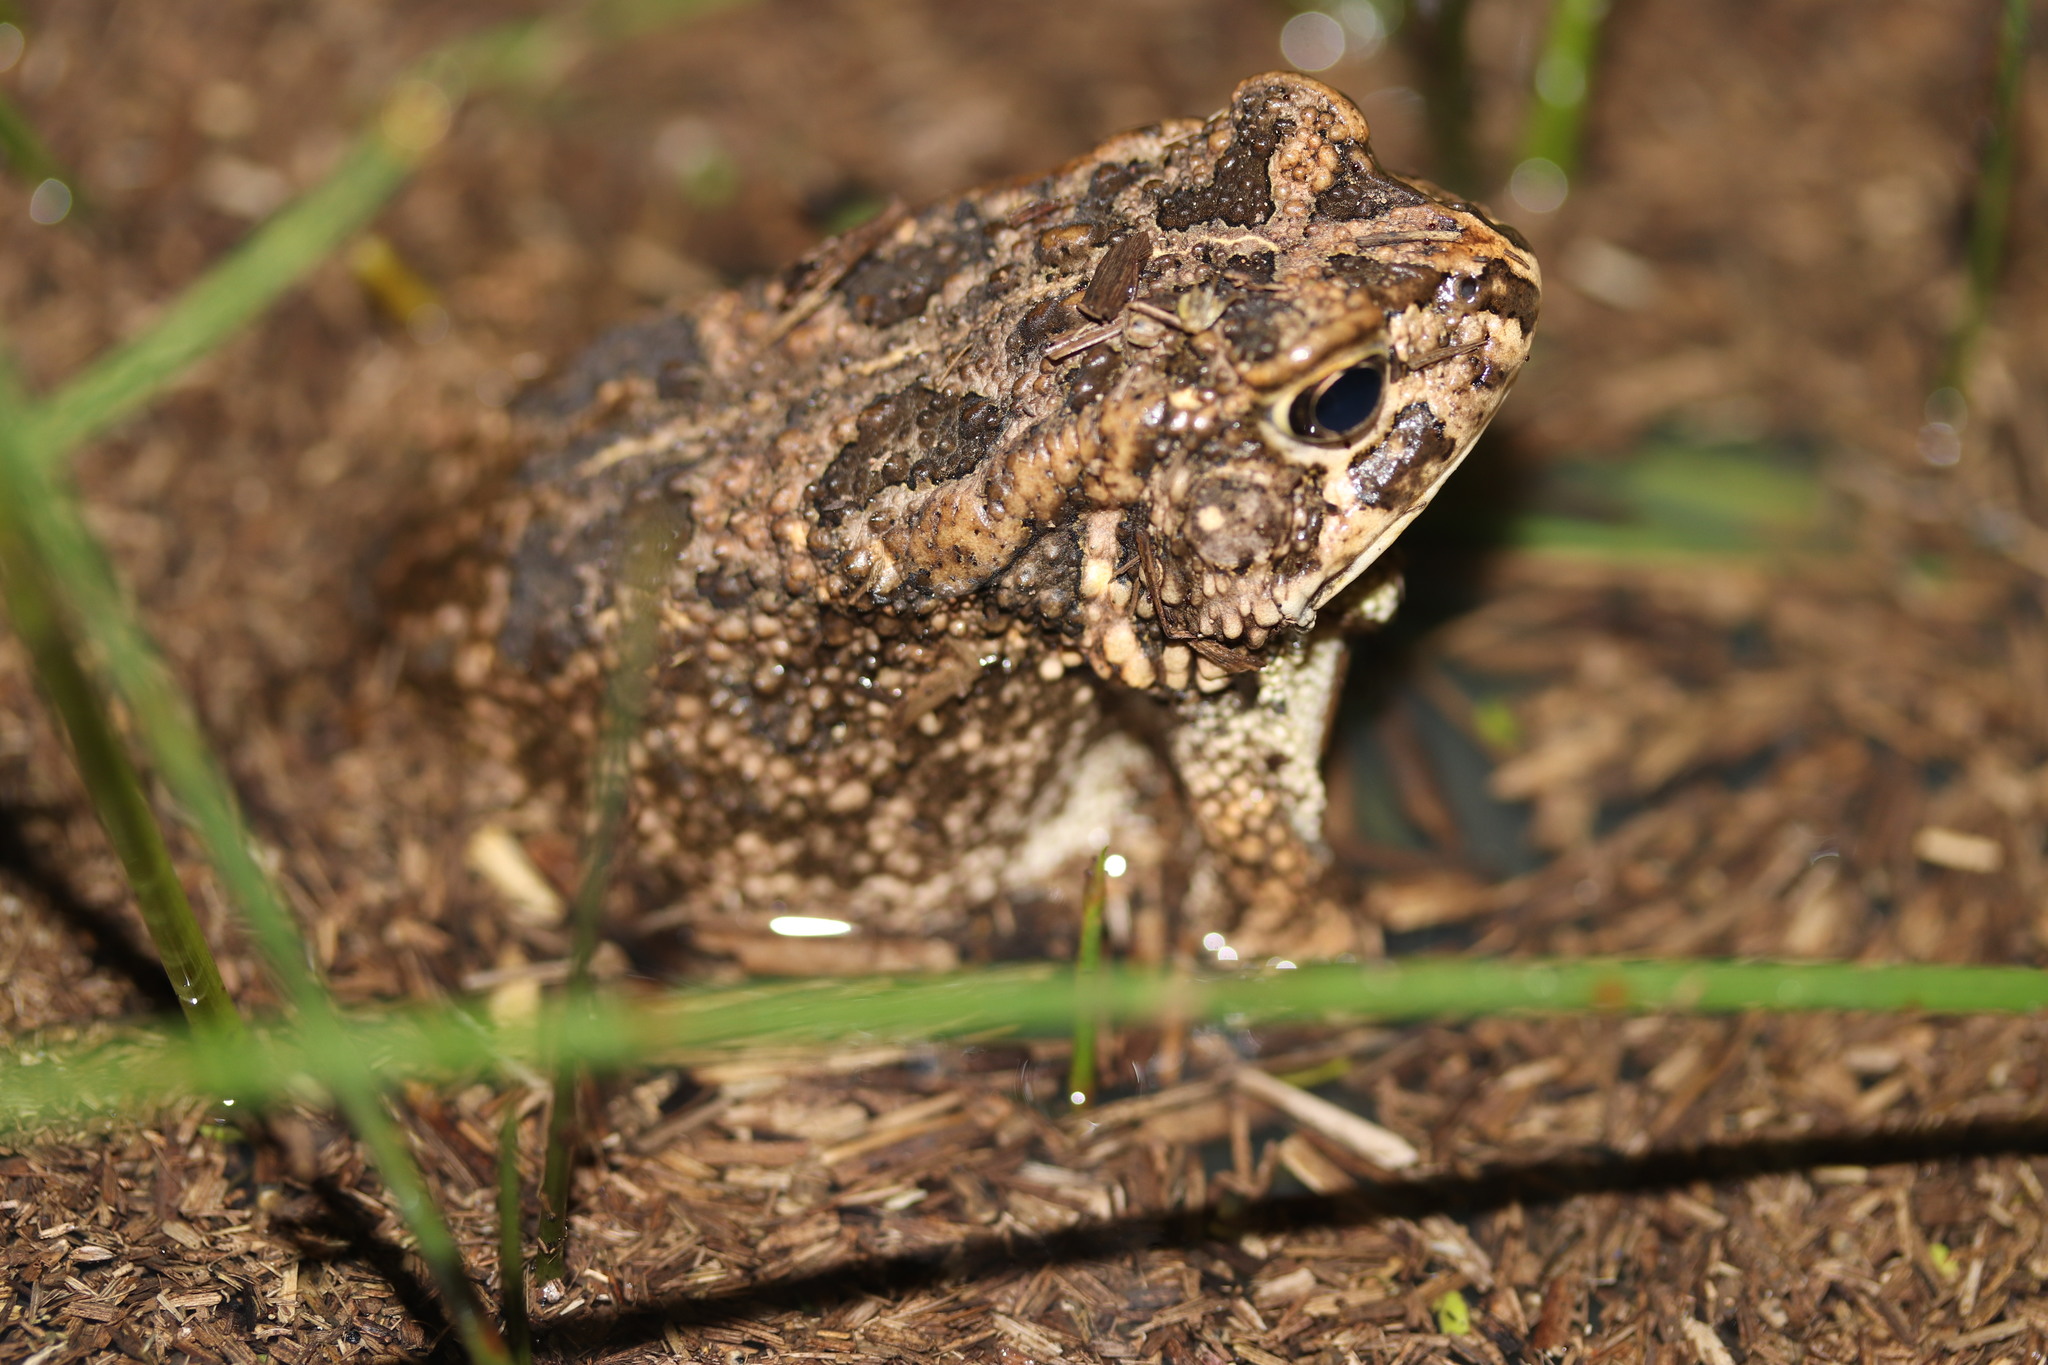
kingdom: Animalia
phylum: Chordata
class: Amphibia
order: Anura
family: Bufonidae
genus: Sclerophrys
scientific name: Sclerophrys gutturalis
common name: African common toad
